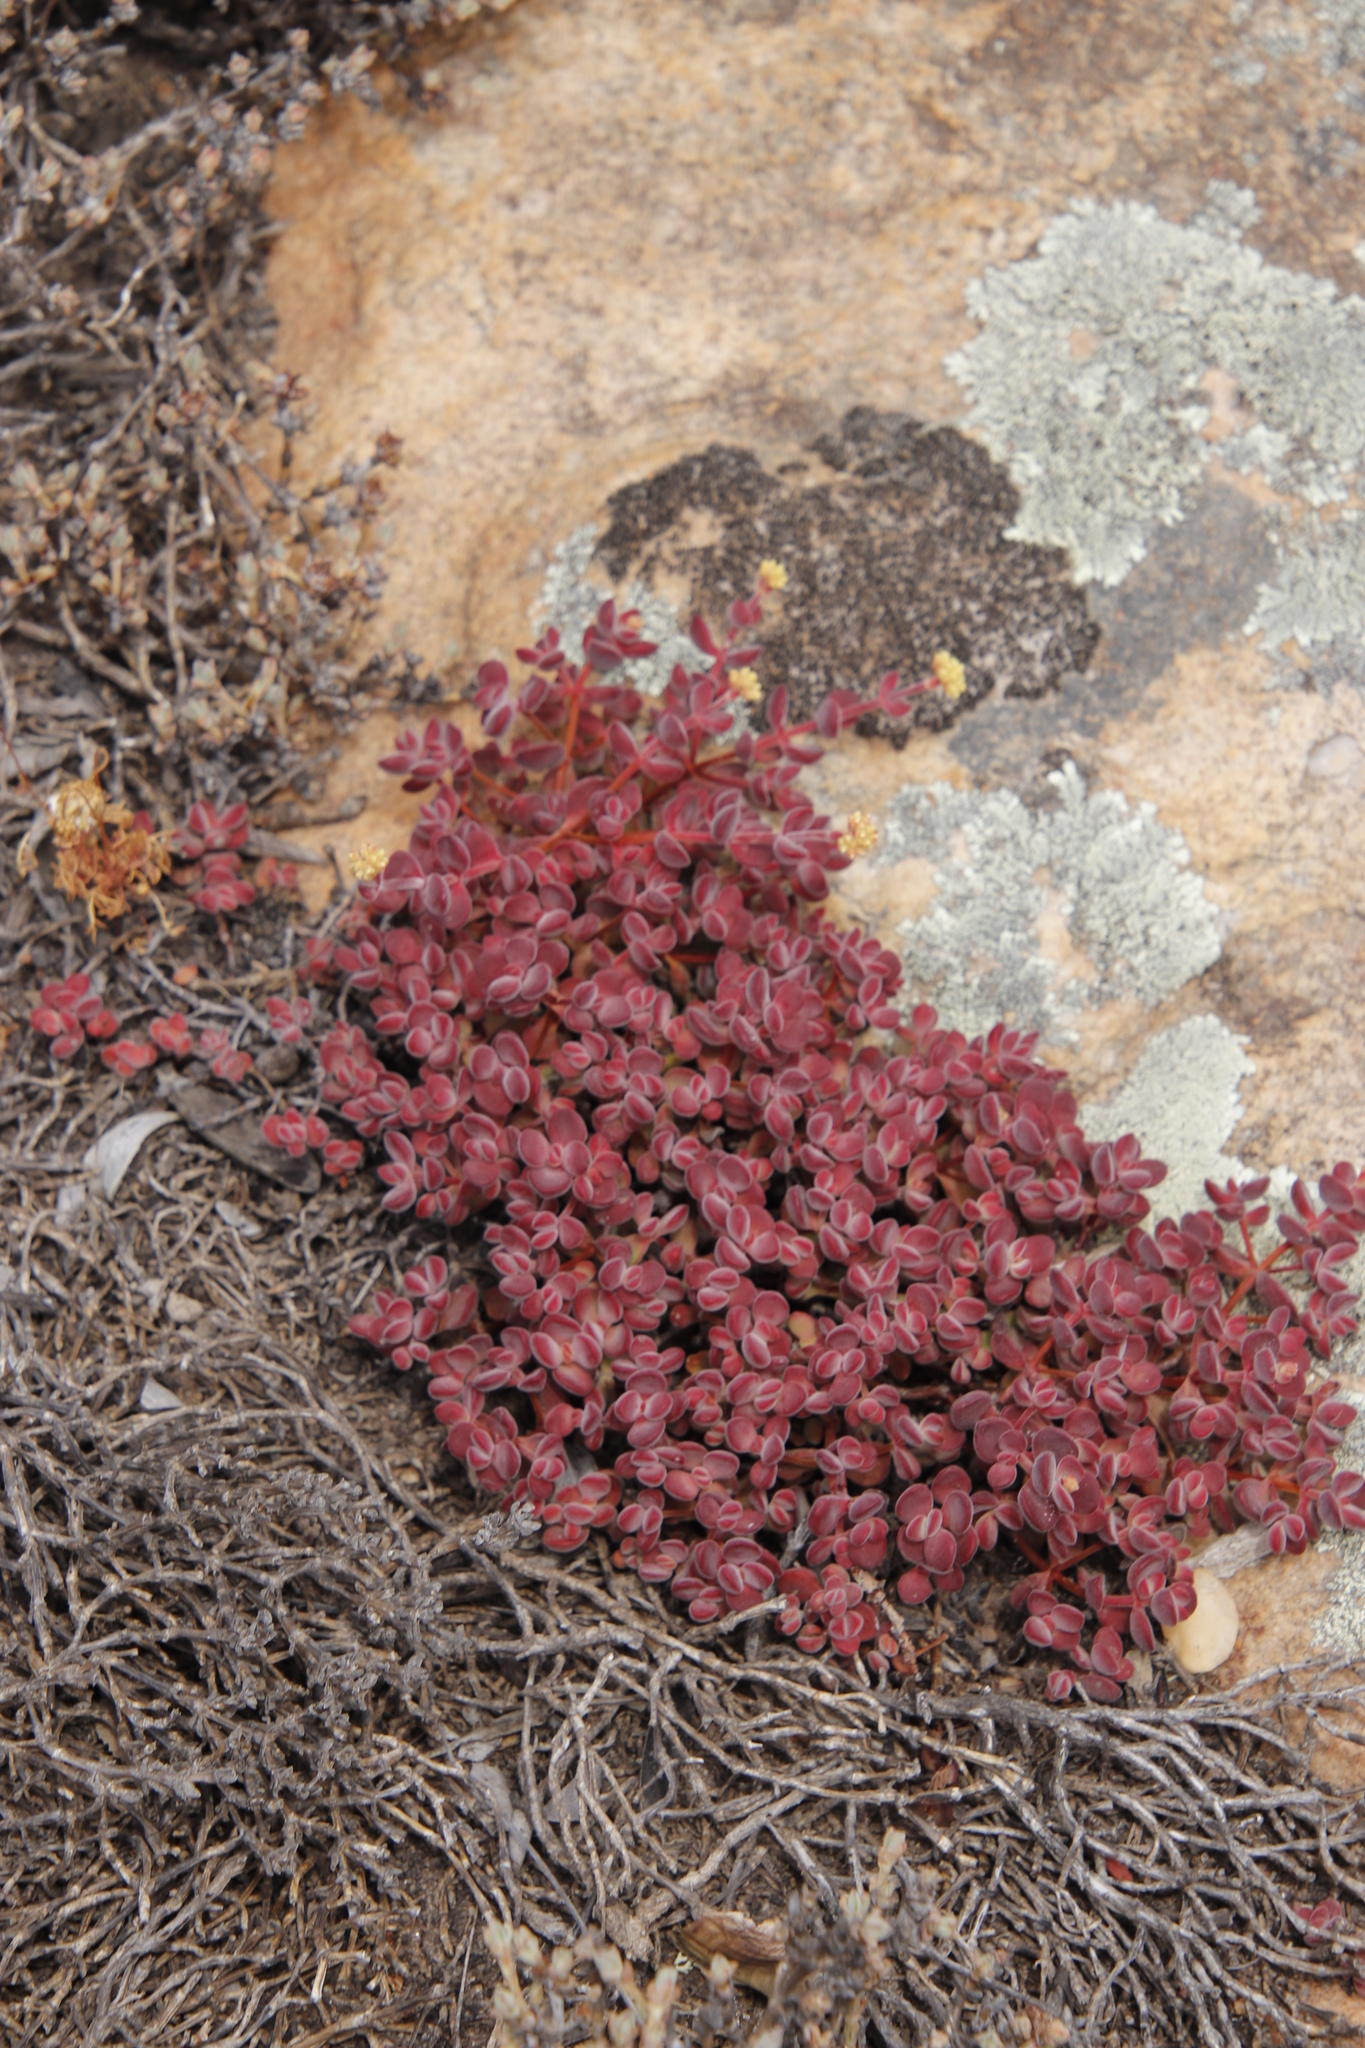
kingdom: Plantae
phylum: Tracheophyta
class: Magnoliopsida
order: Saxifragales
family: Crassulaceae
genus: Crassula
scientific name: Crassula atropurpurea
